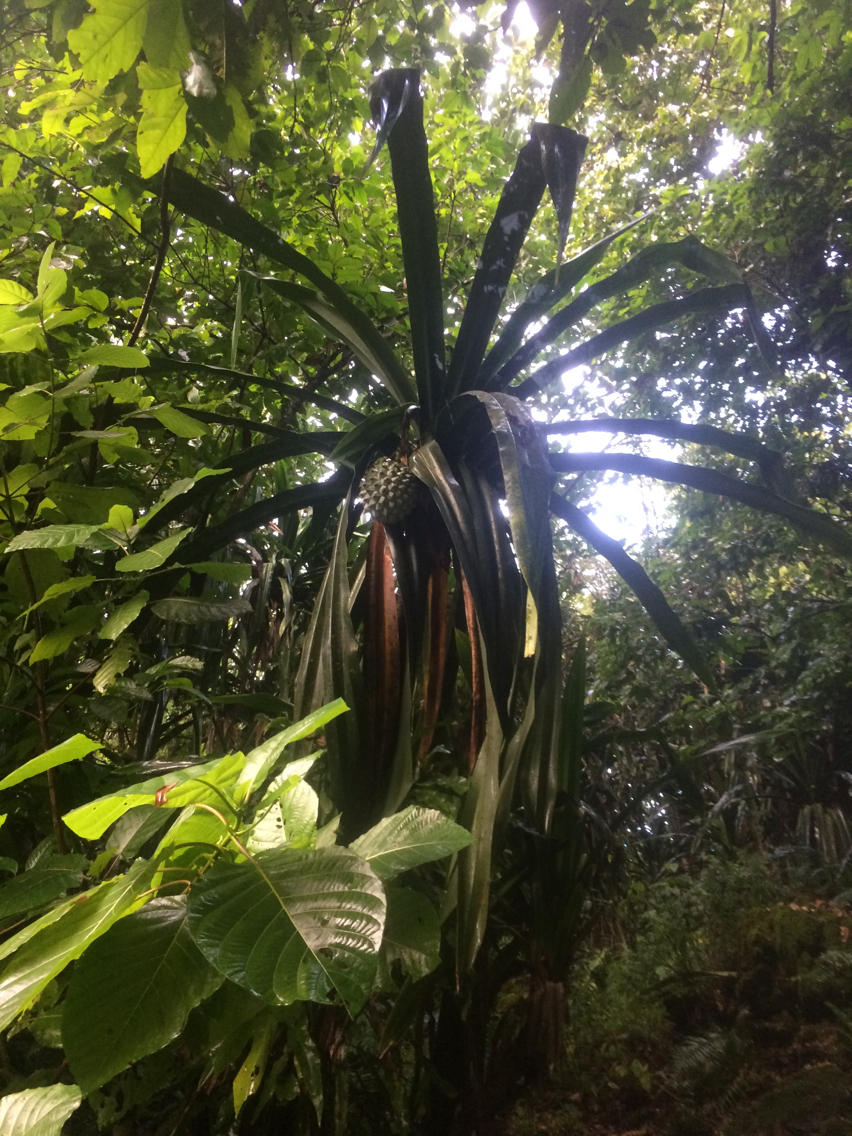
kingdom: Plantae
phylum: Tracheophyta
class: Liliopsida
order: Pandanales
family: Pandanaceae
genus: Pandanus
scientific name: Pandanus dubius
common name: Knob-fruited screwpine
